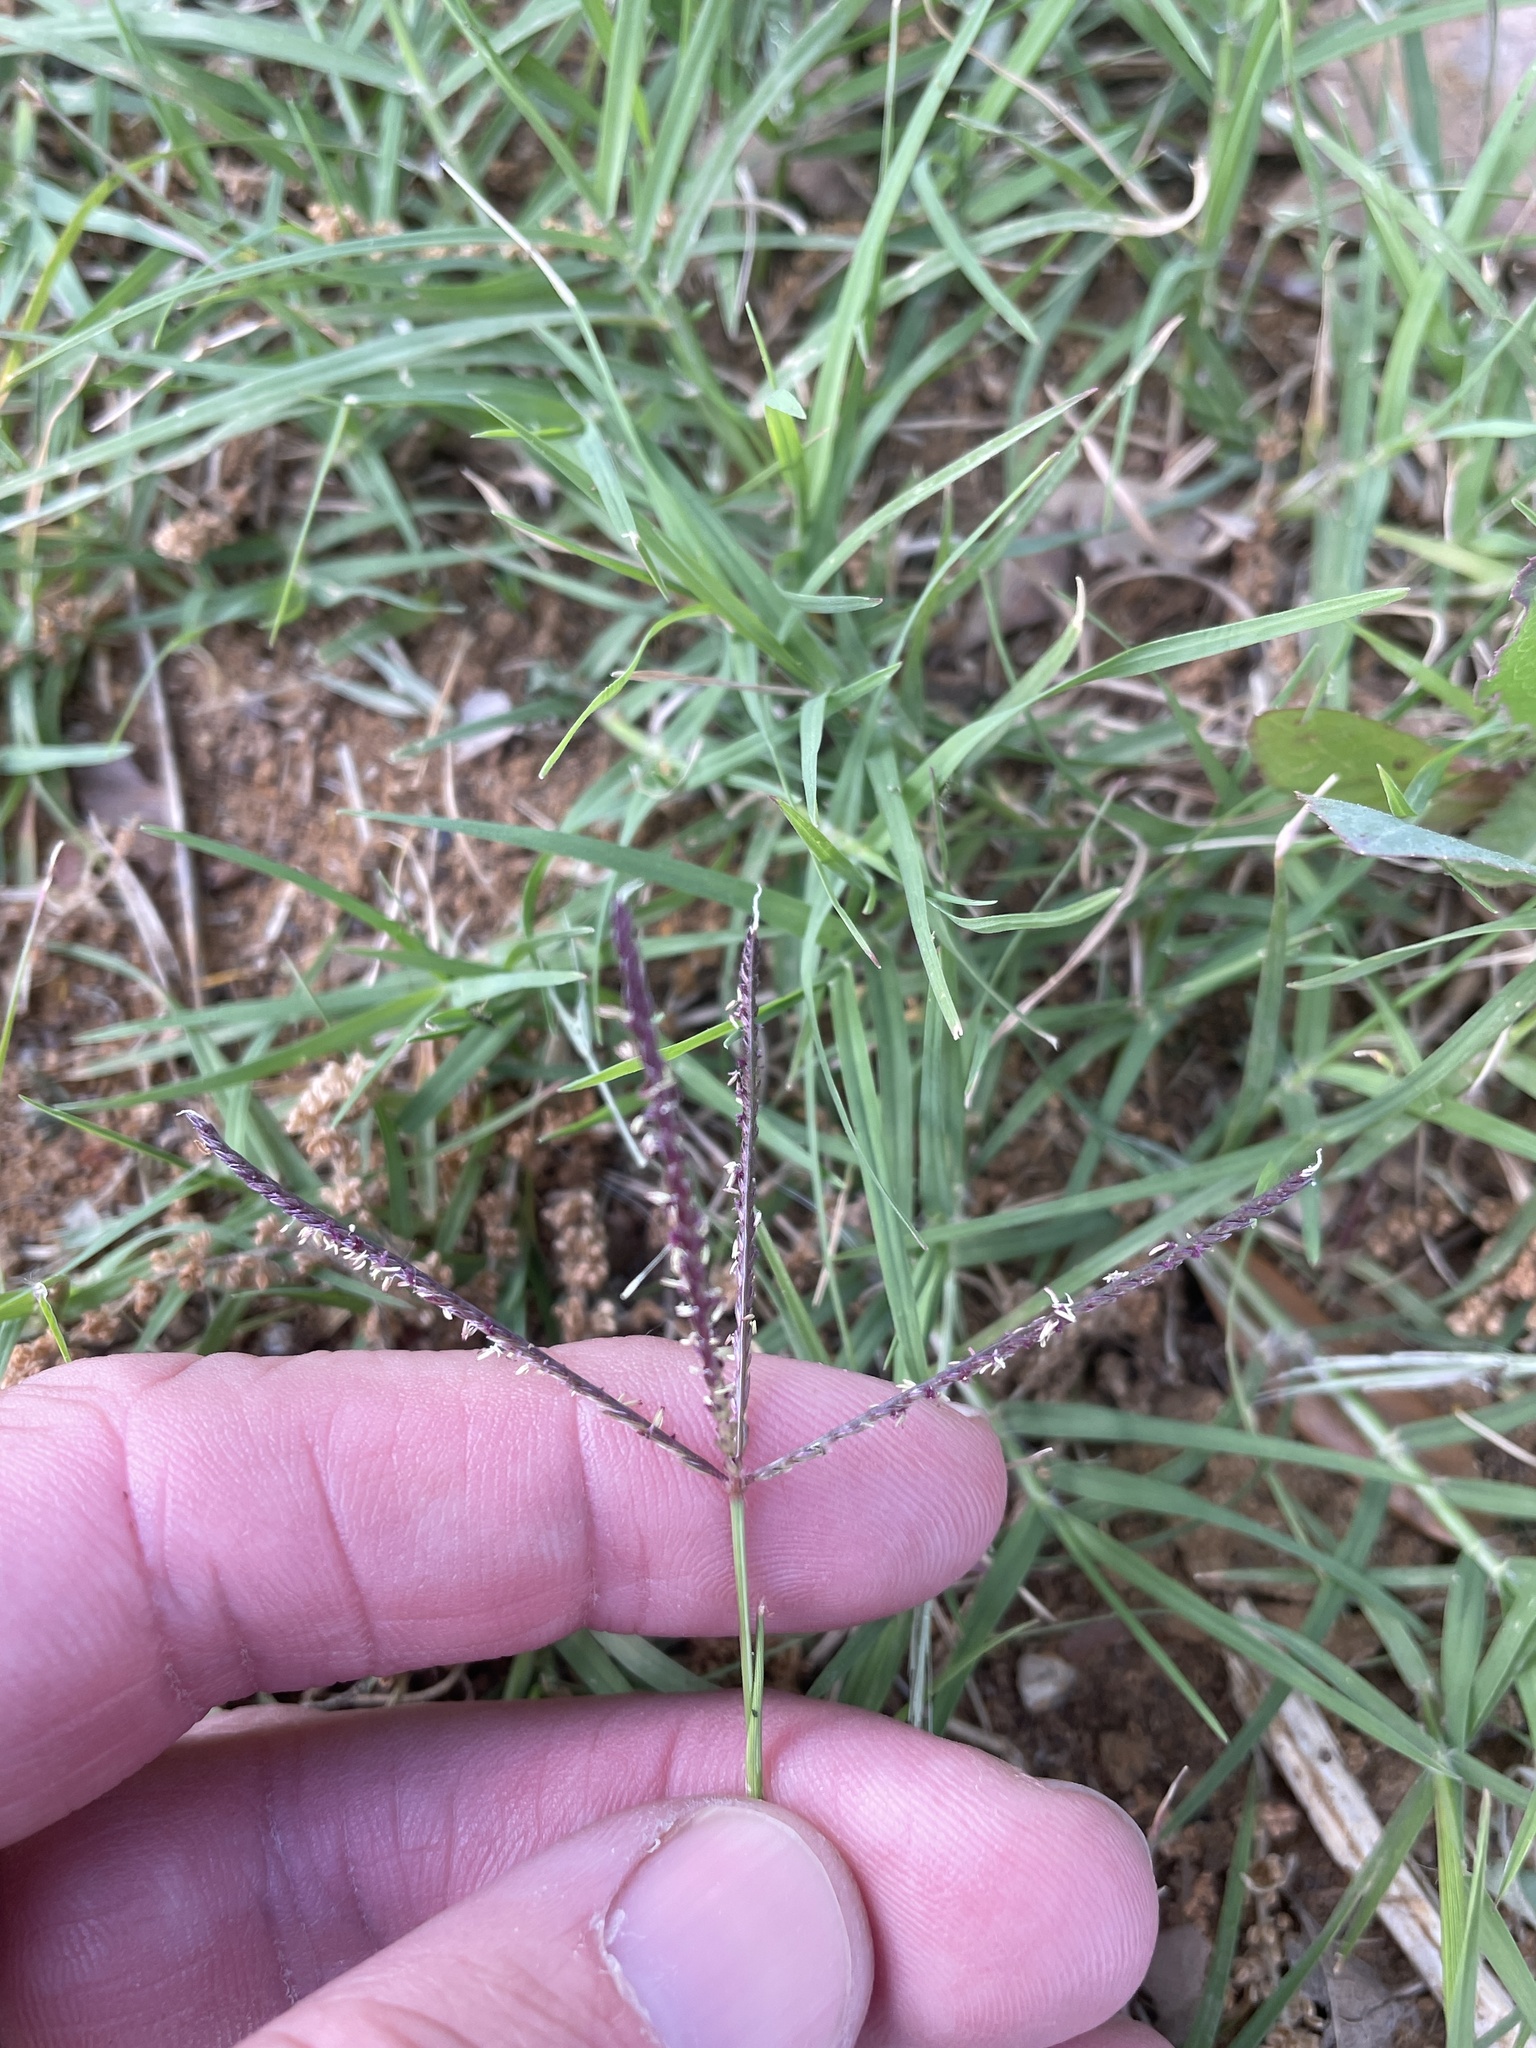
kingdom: Plantae
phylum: Tracheophyta
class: Liliopsida
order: Poales
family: Poaceae
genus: Cynodon
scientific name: Cynodon dactylon
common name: Bermuda grass
